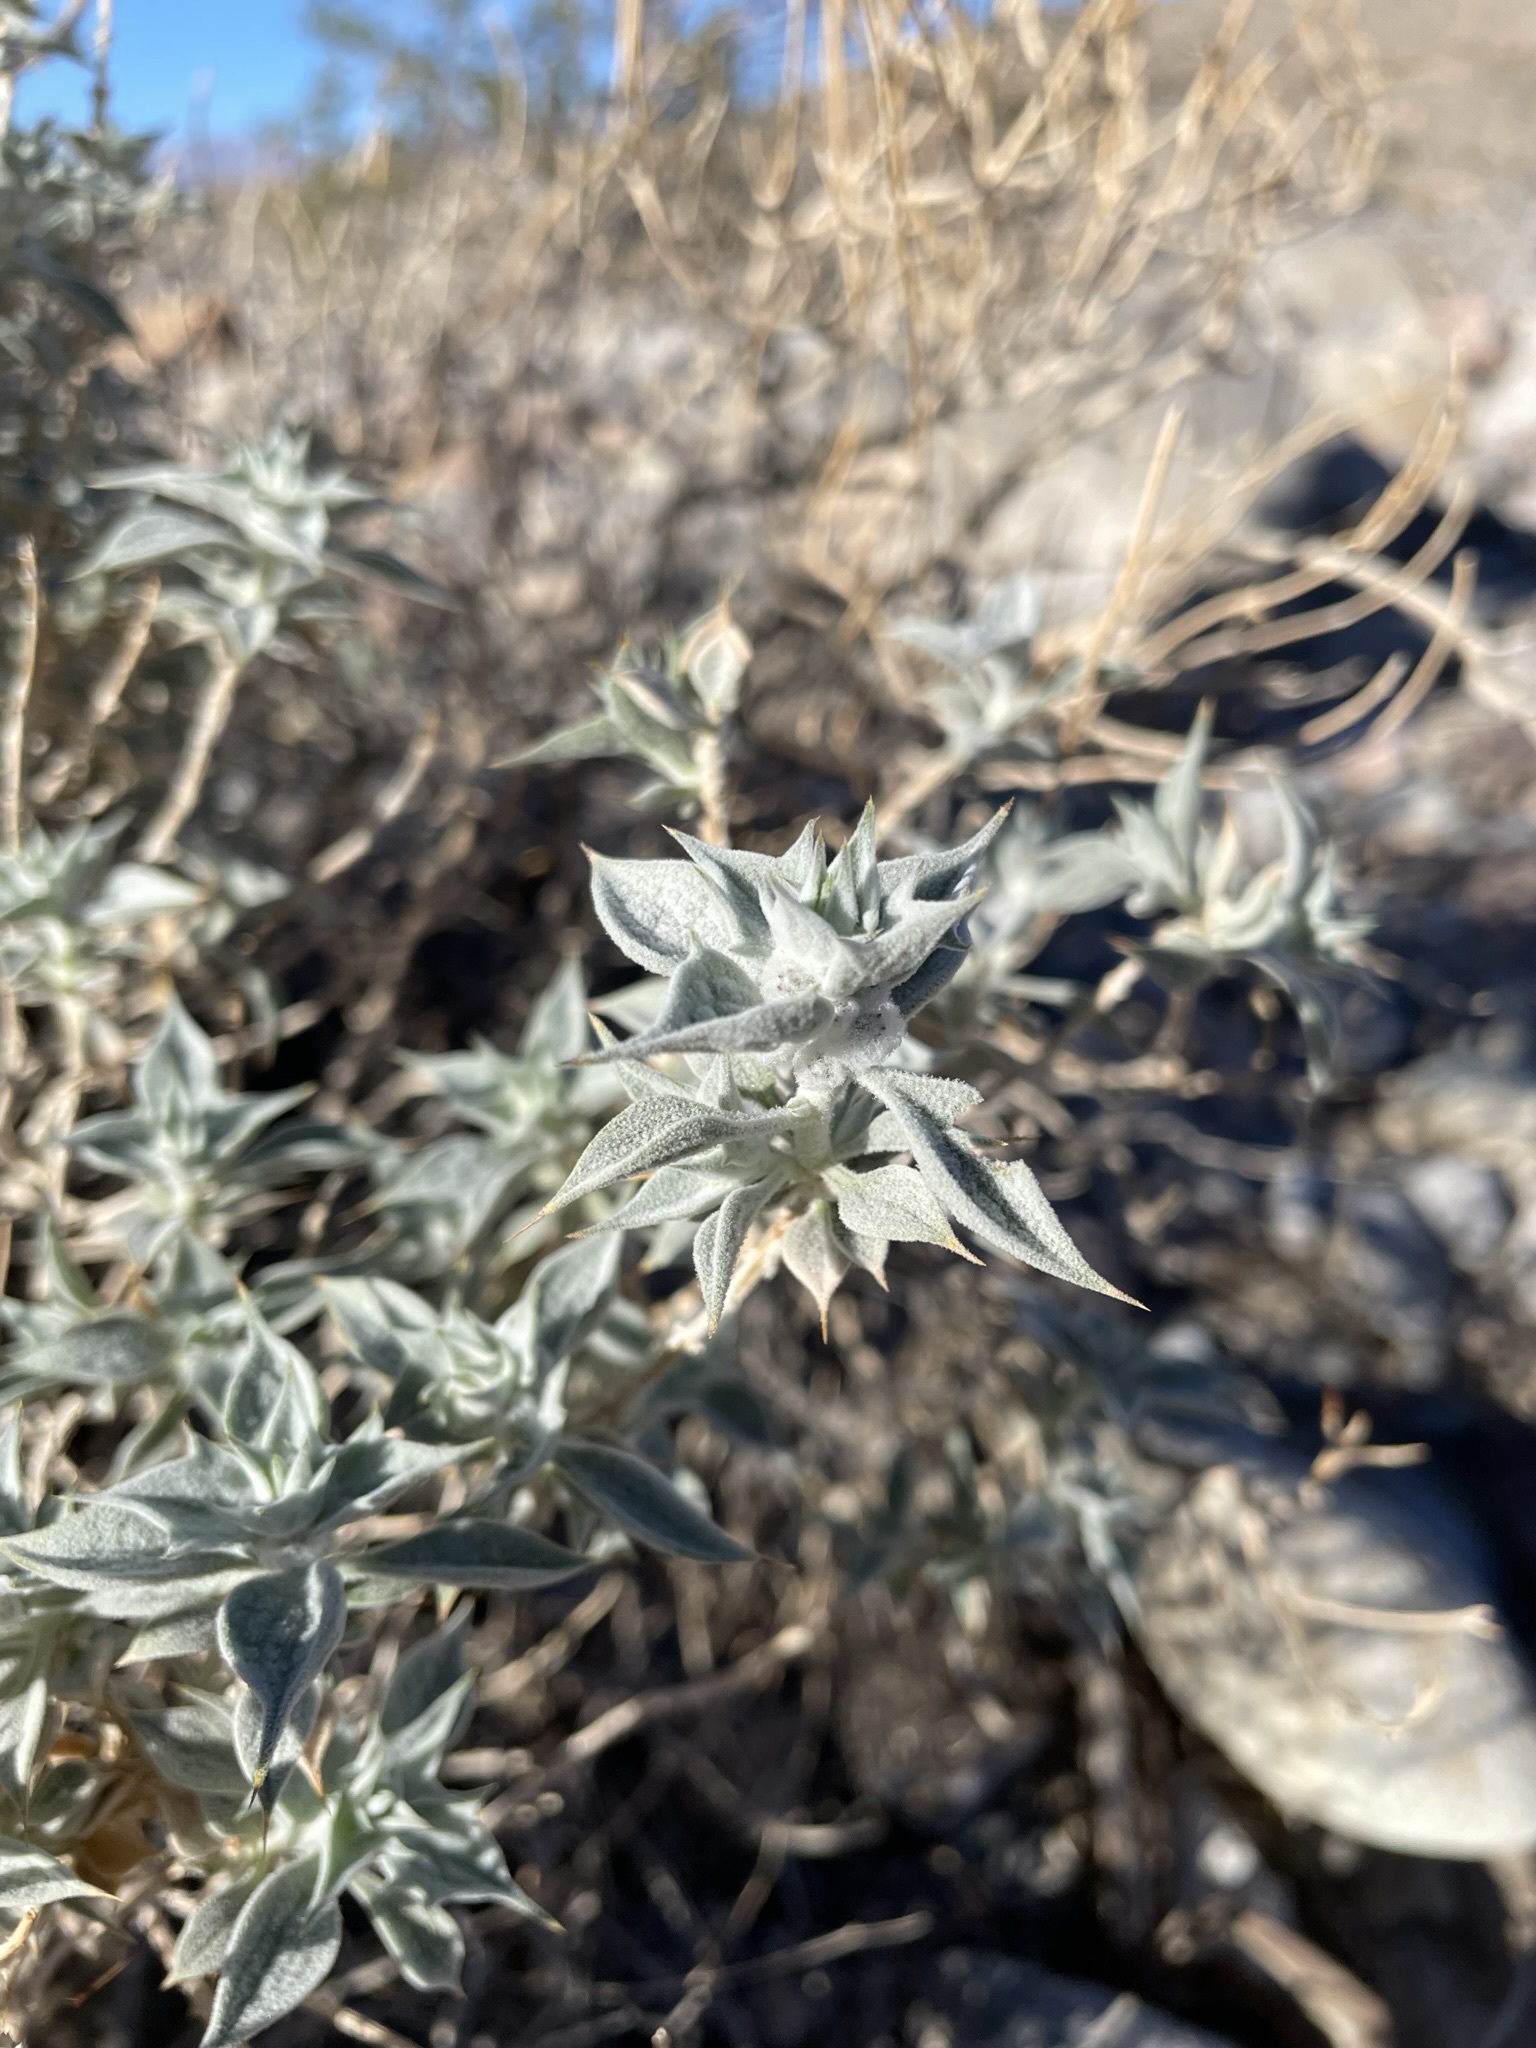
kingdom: Plantae
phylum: Tracheophyta
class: Magnoliopsida
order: Lamiales
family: Lamiaceae
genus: Salvia
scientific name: Salvia funerea
